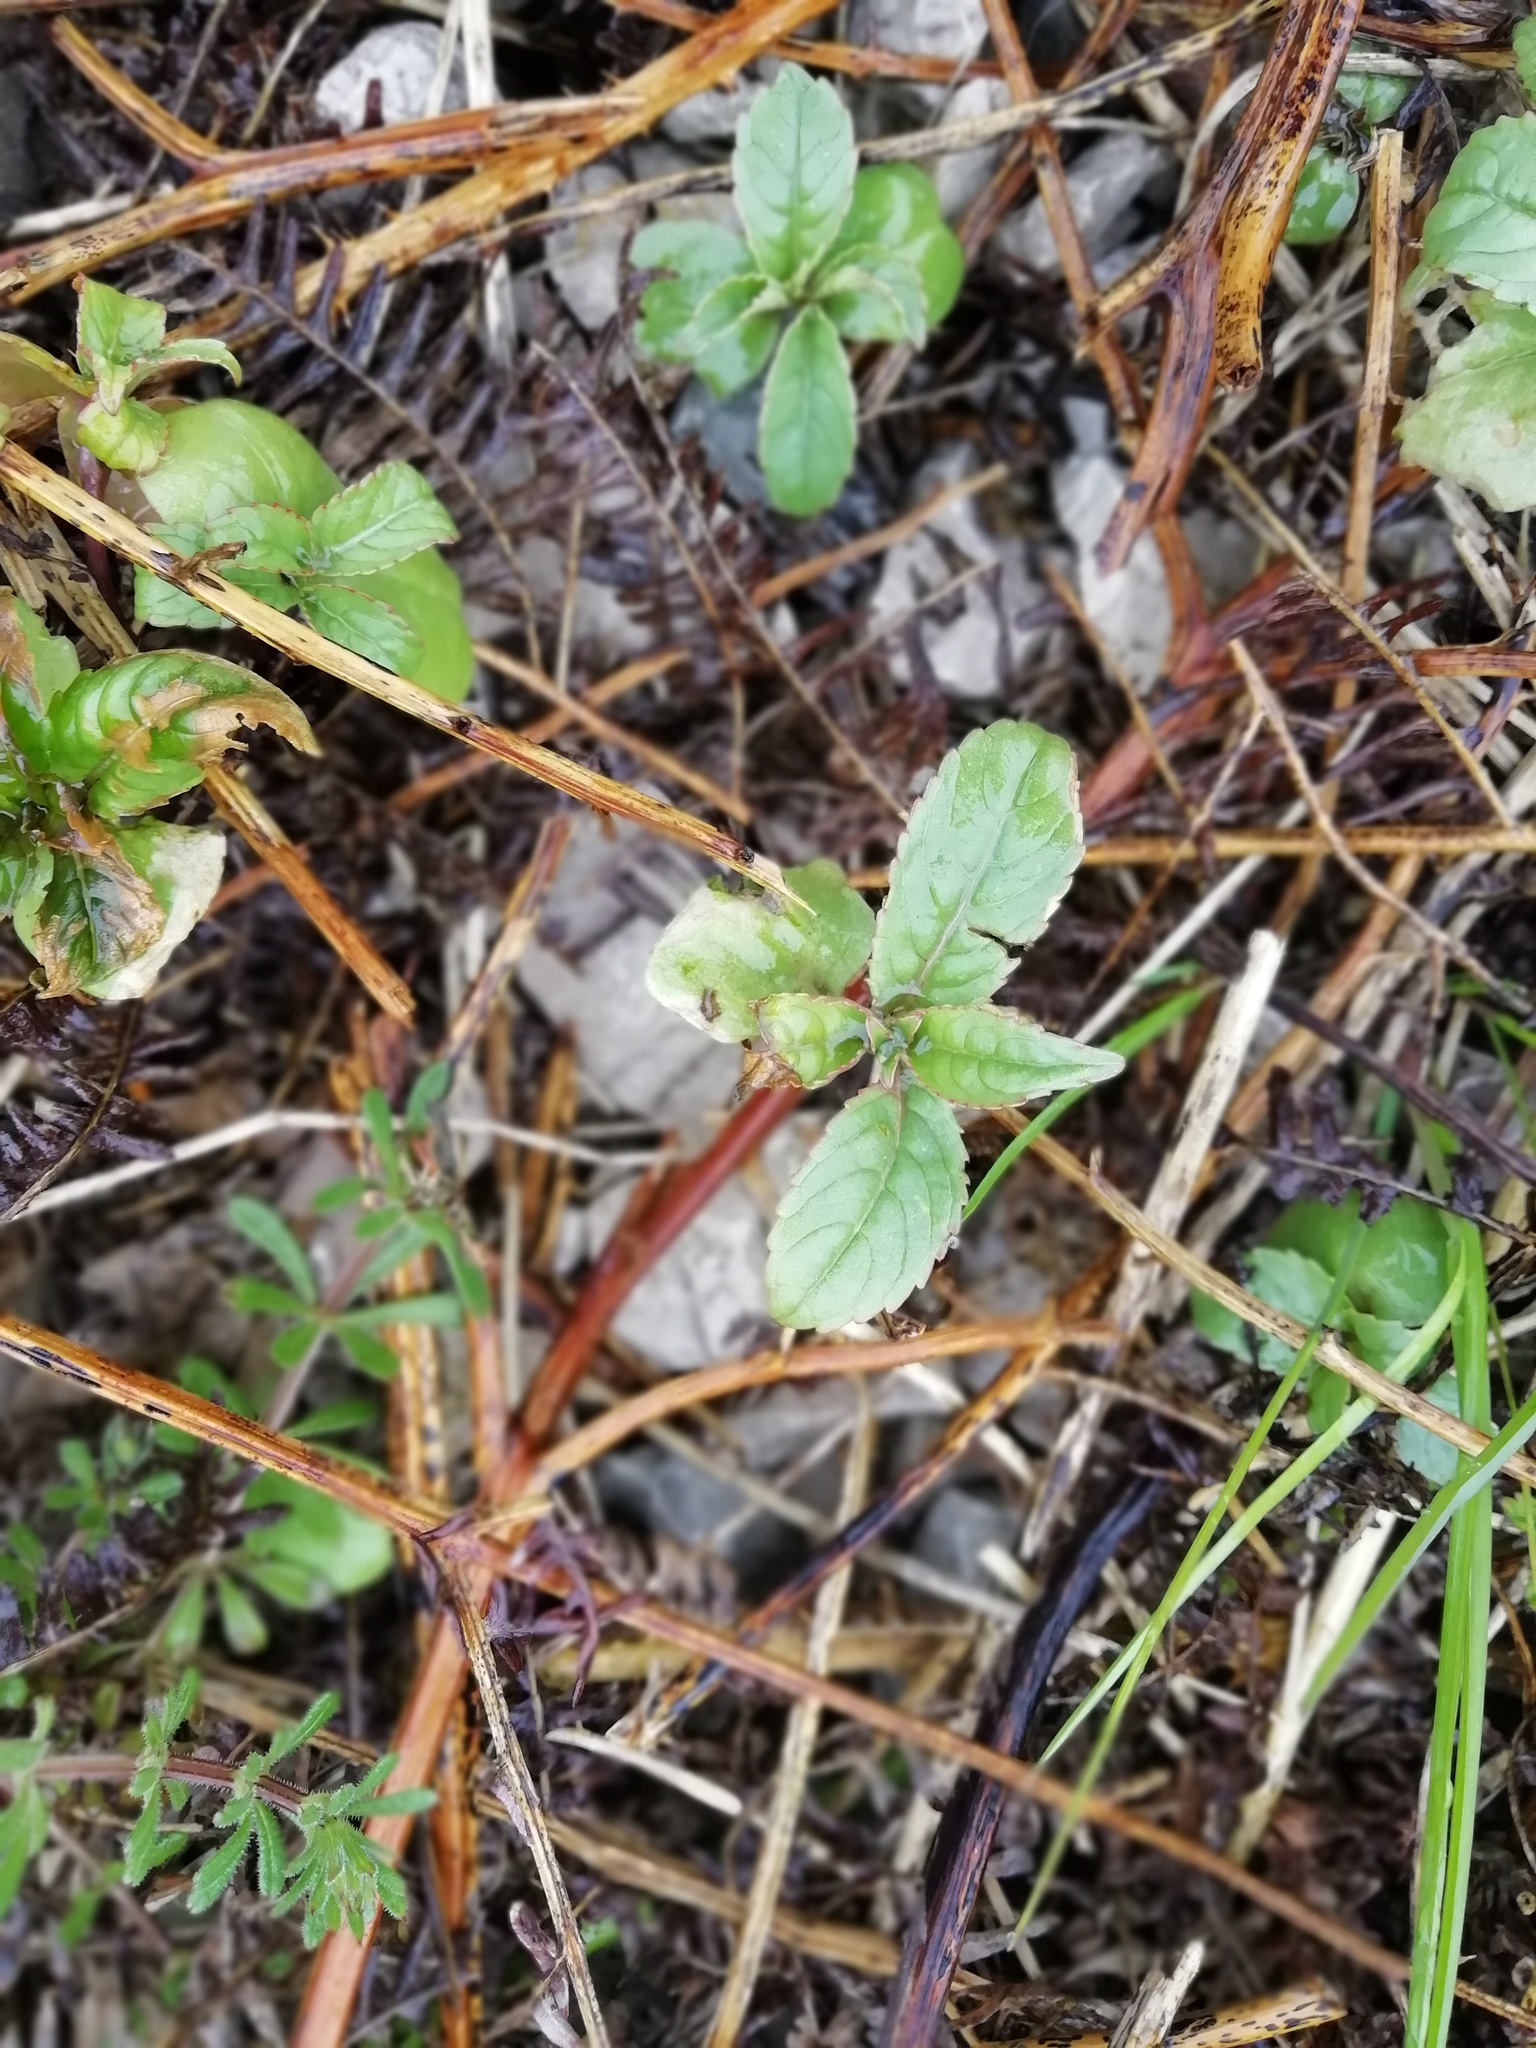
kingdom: Plantae
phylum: Tracheophyta
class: Magnoliopsida
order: Ericales
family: Balsaminaceae
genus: Impatiens
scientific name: Impatiens glandulifera
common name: Himalayan balsam
